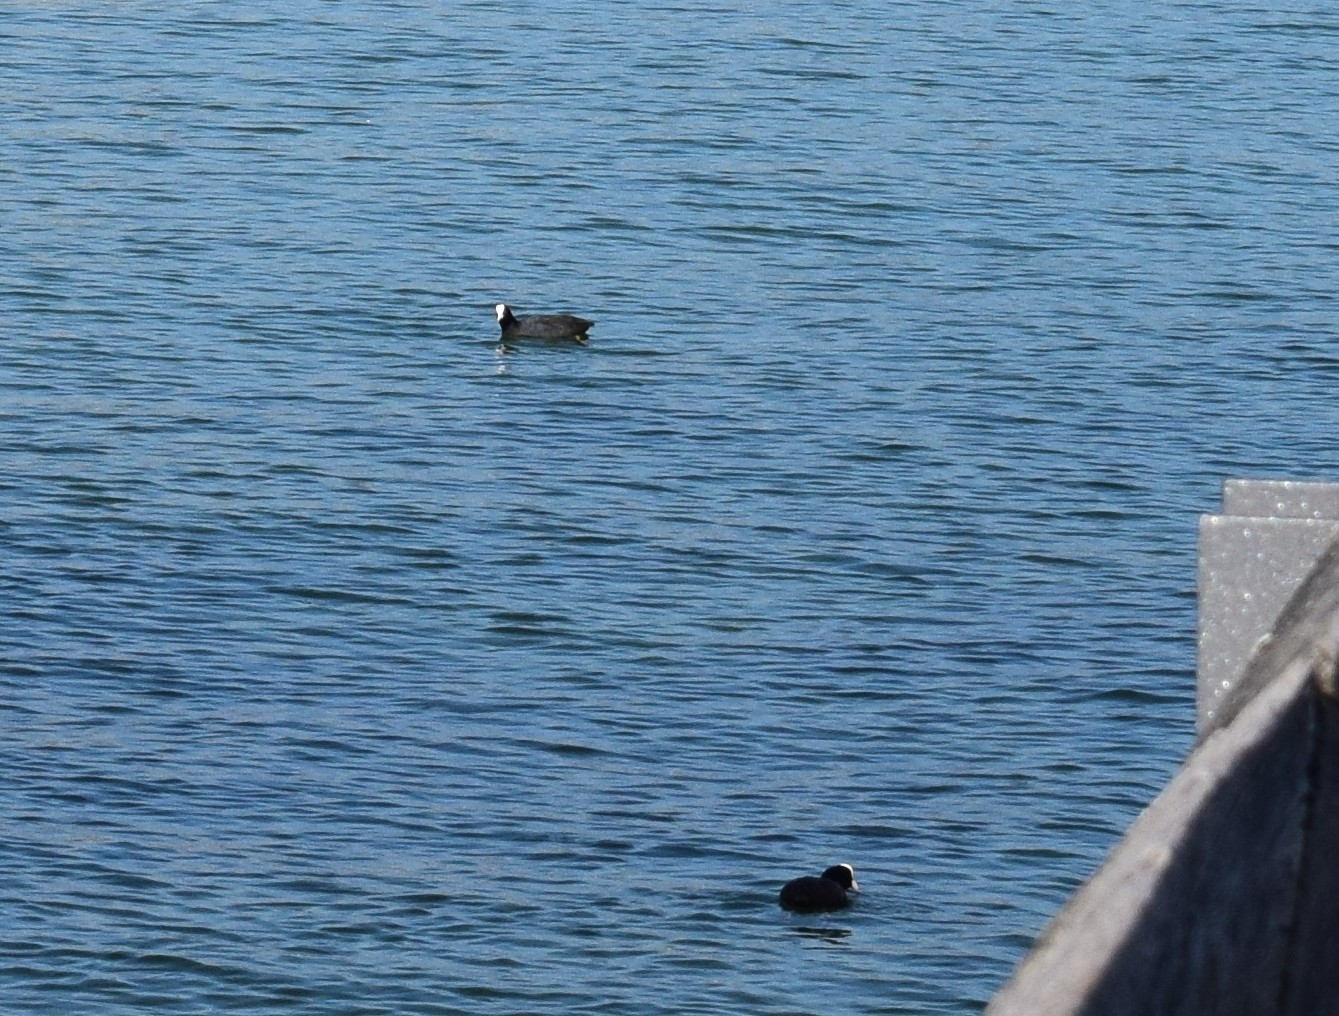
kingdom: Animalia
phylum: Chordata
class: Aves
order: Gruiformes
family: Rallidae
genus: Fulica
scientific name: Fulica atra
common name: Eurasian coot
